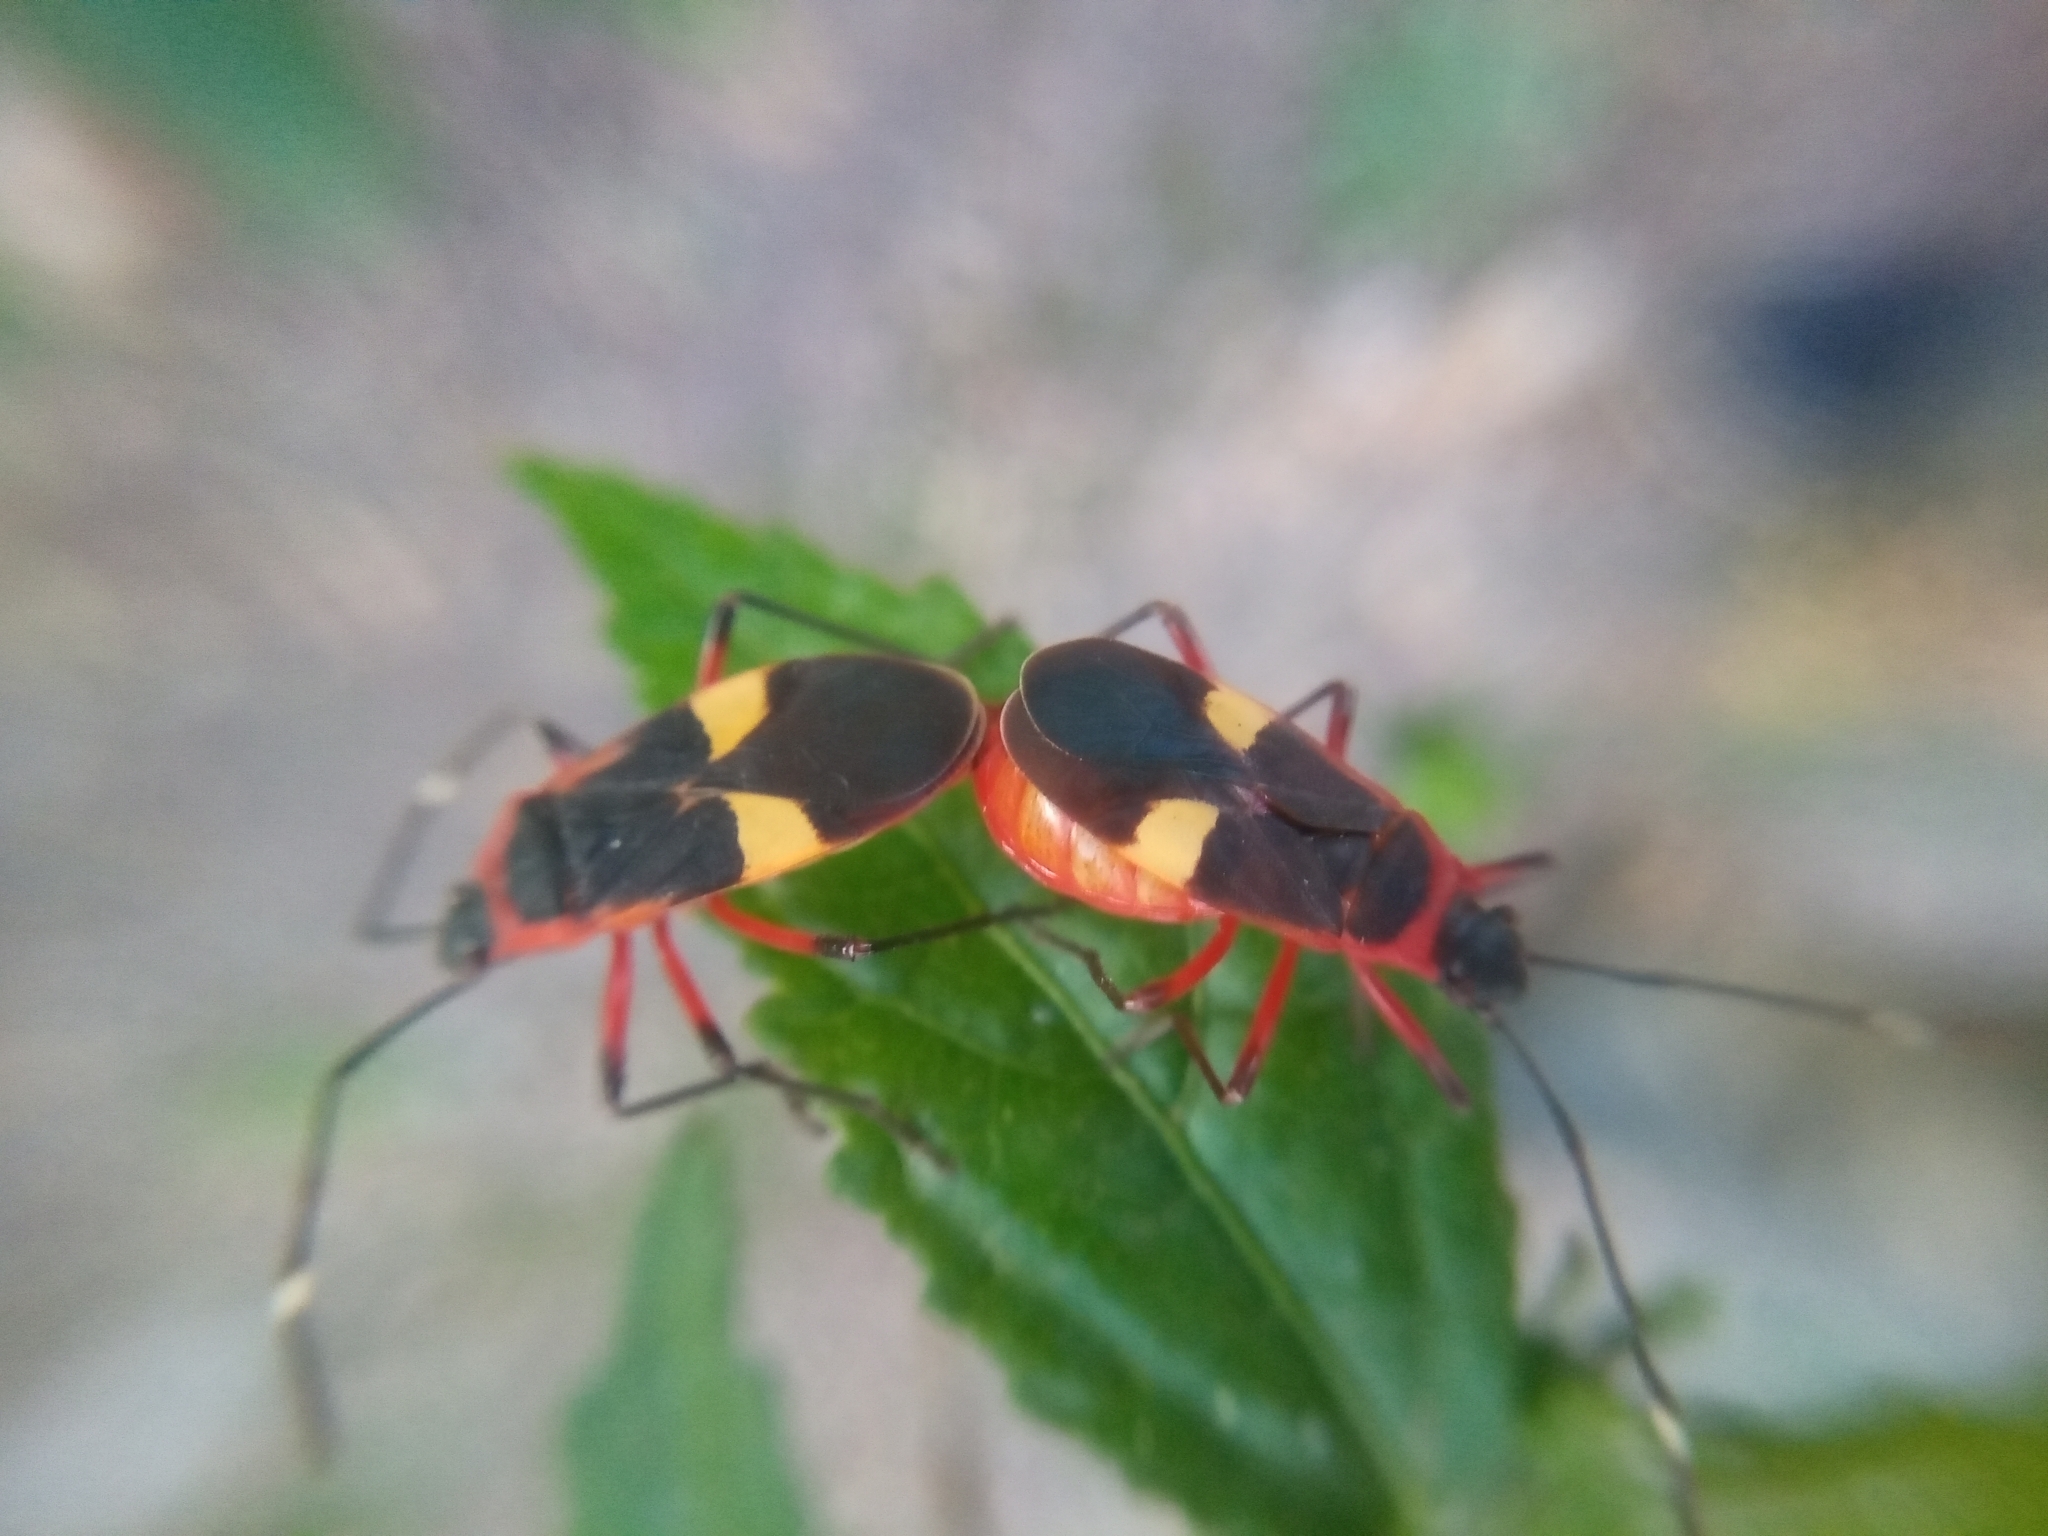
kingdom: Animalia
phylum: Arthropoda
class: Insecta
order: Hemiptera
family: Pyrrhocoridae
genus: Dysdercus
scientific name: Dysdercus albofasciatus
